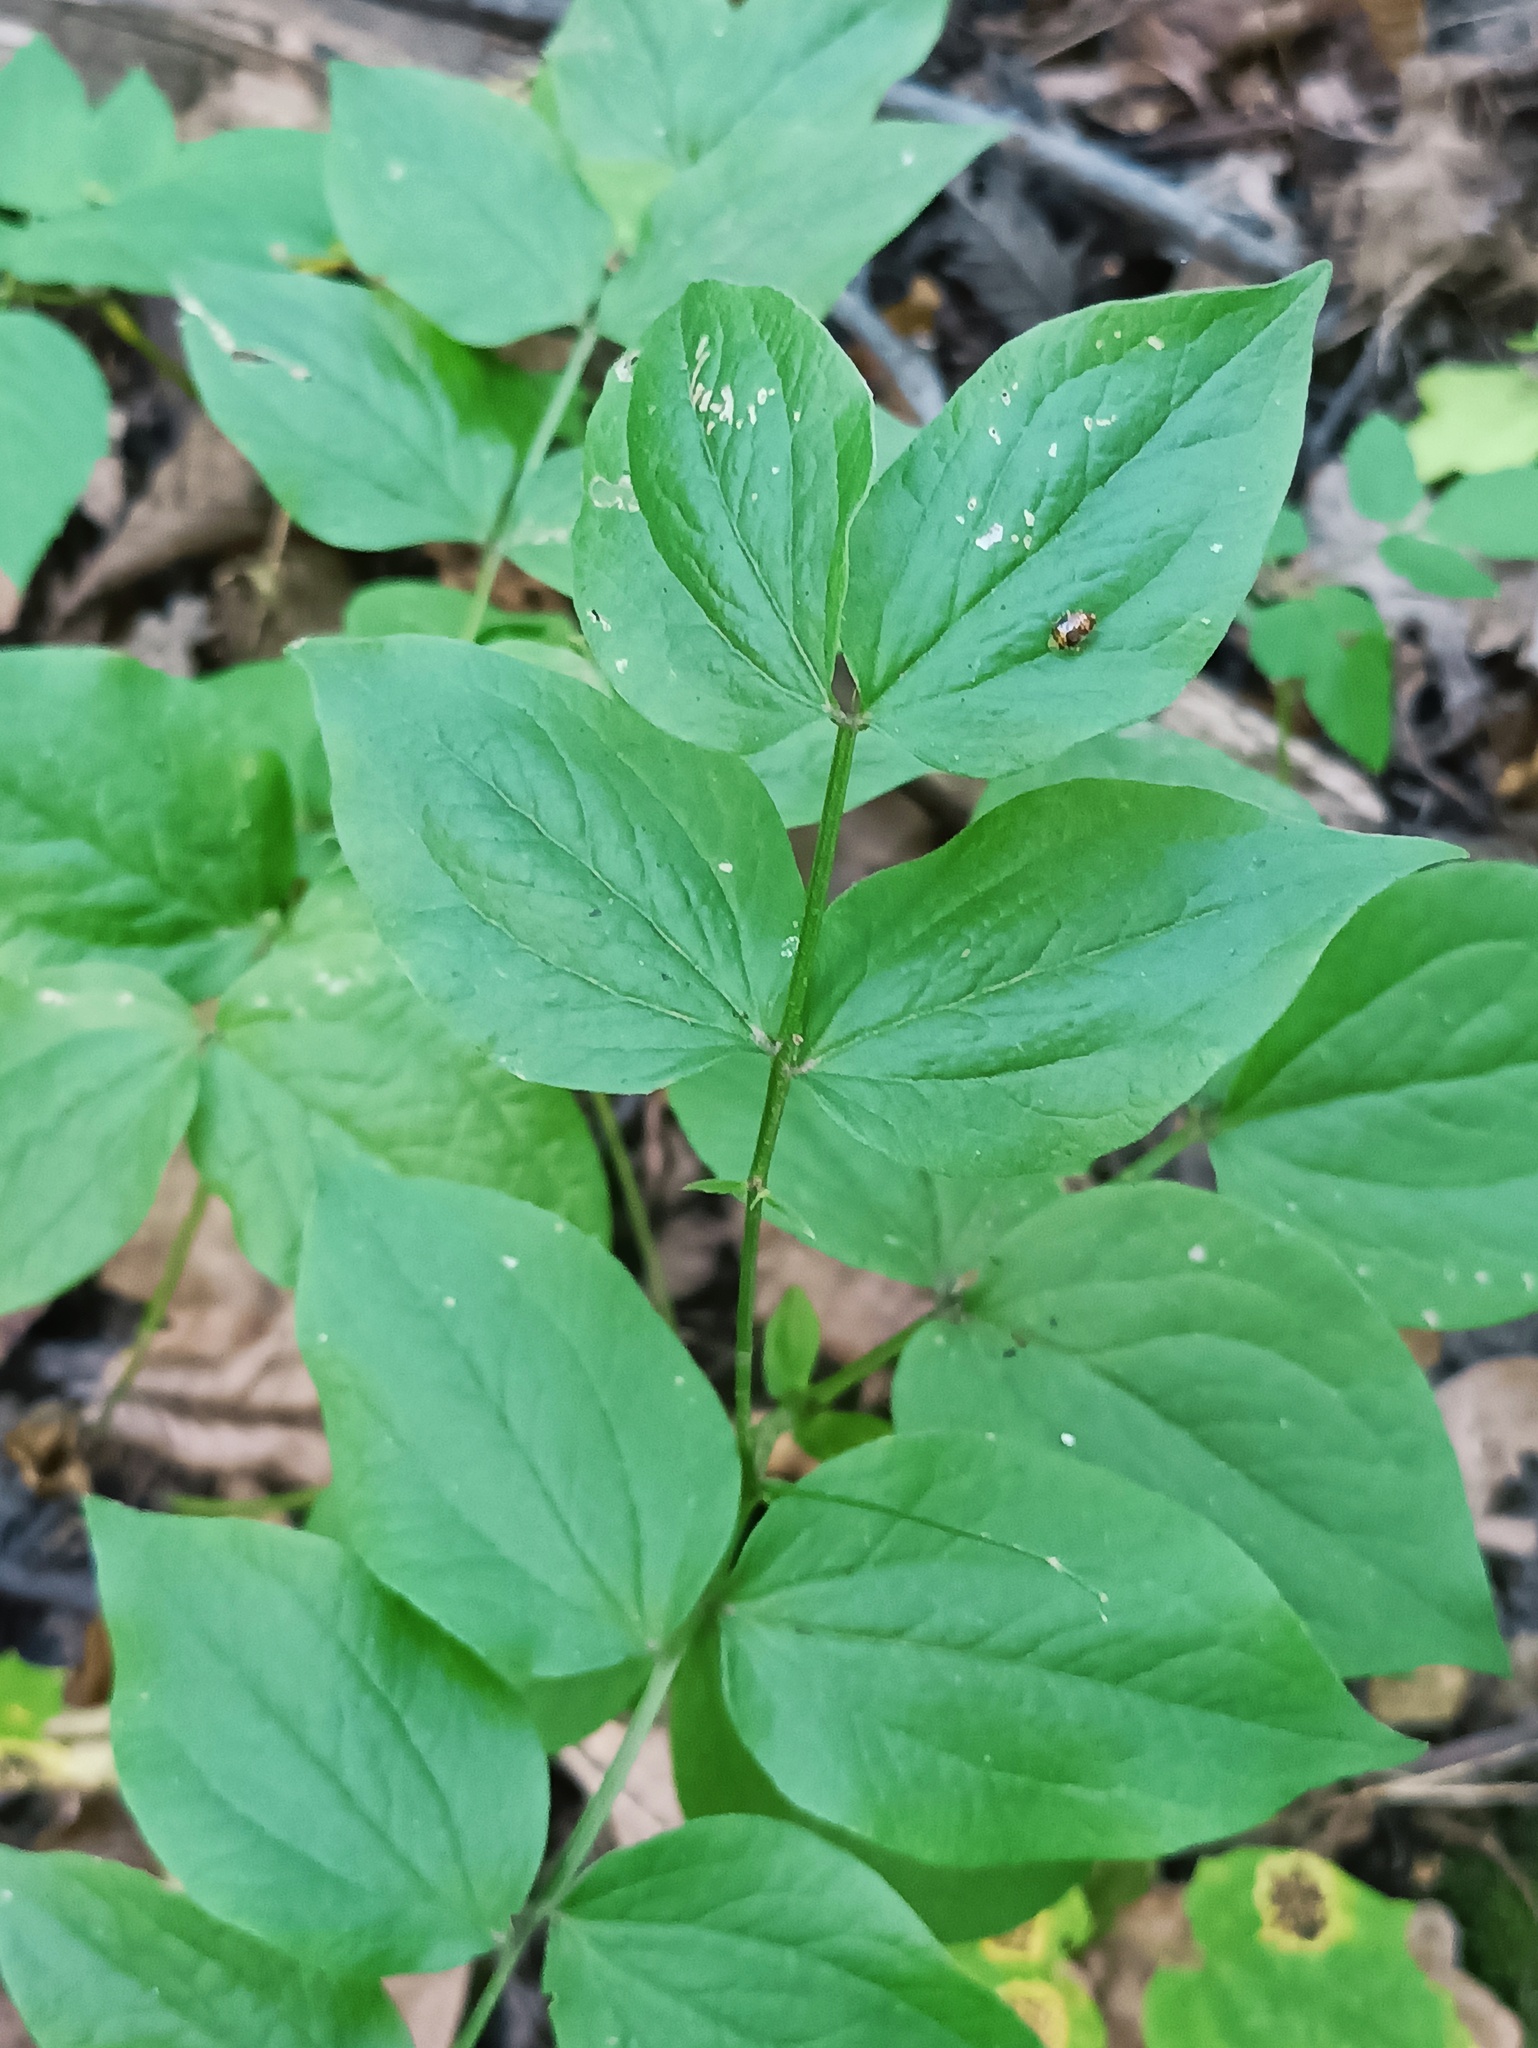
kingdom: Plantae
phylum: Tracheophyta
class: Magnoliopsida
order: Fabales
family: Fabaceae
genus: Lathyrus
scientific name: Lathyrus vernus
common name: Spring pea
